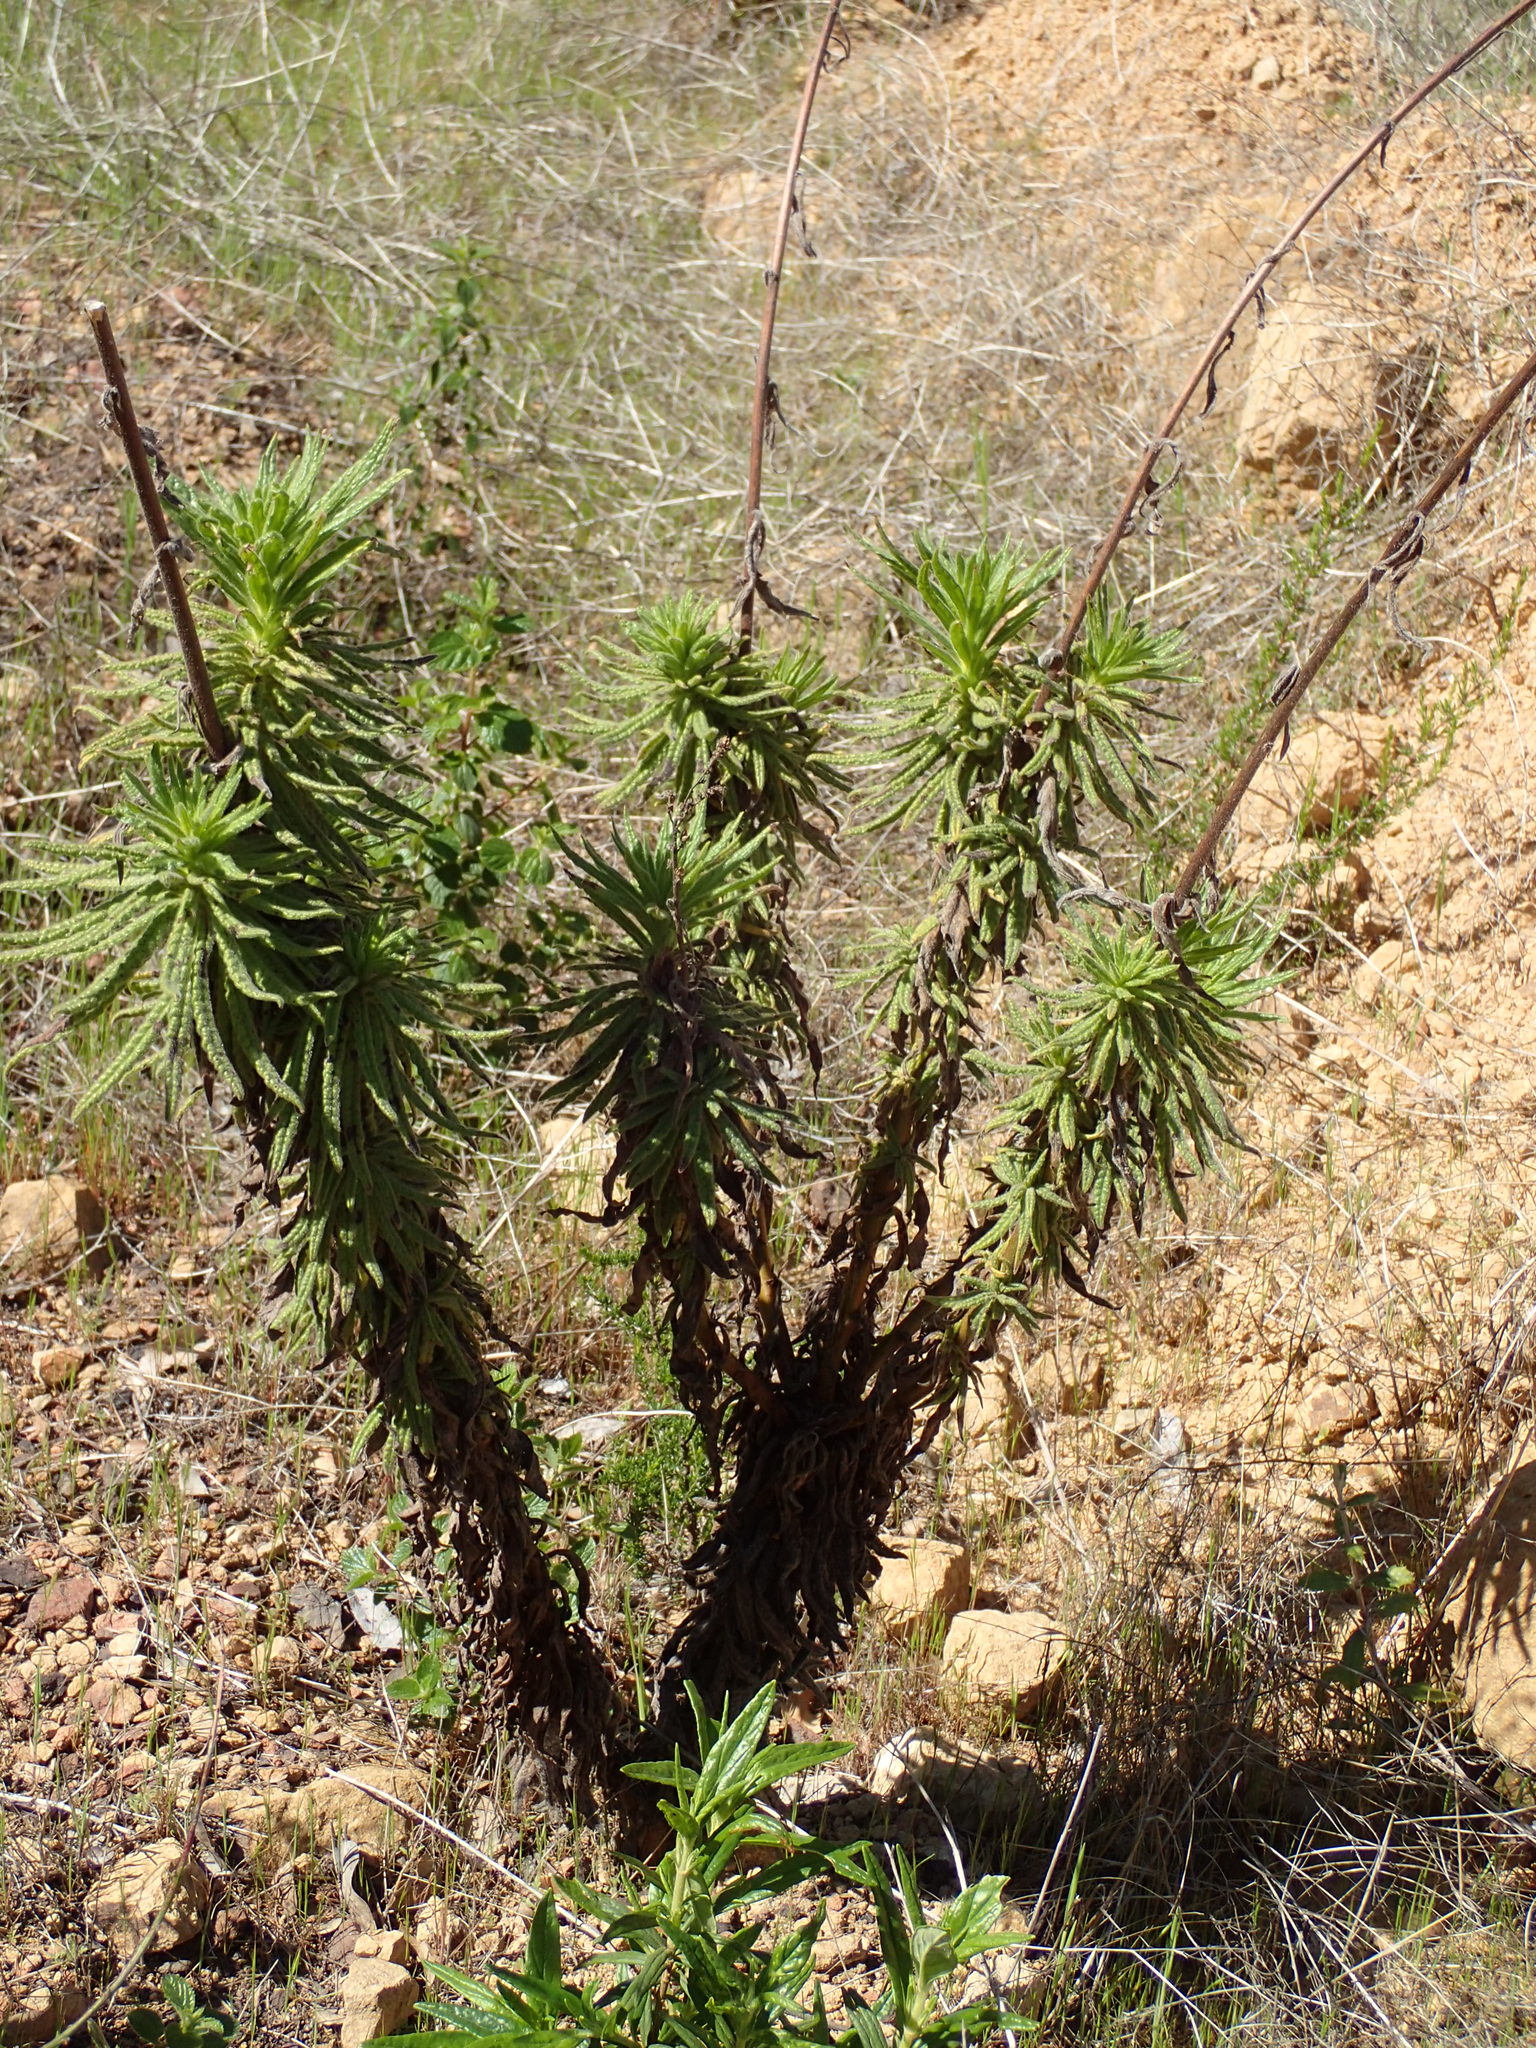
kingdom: Plantae
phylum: Tracheophyta
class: Magnoliopsida
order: Boraginales
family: Namaceae
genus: Turricula
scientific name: Turricula parryi
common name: Poodle-dog-bush
